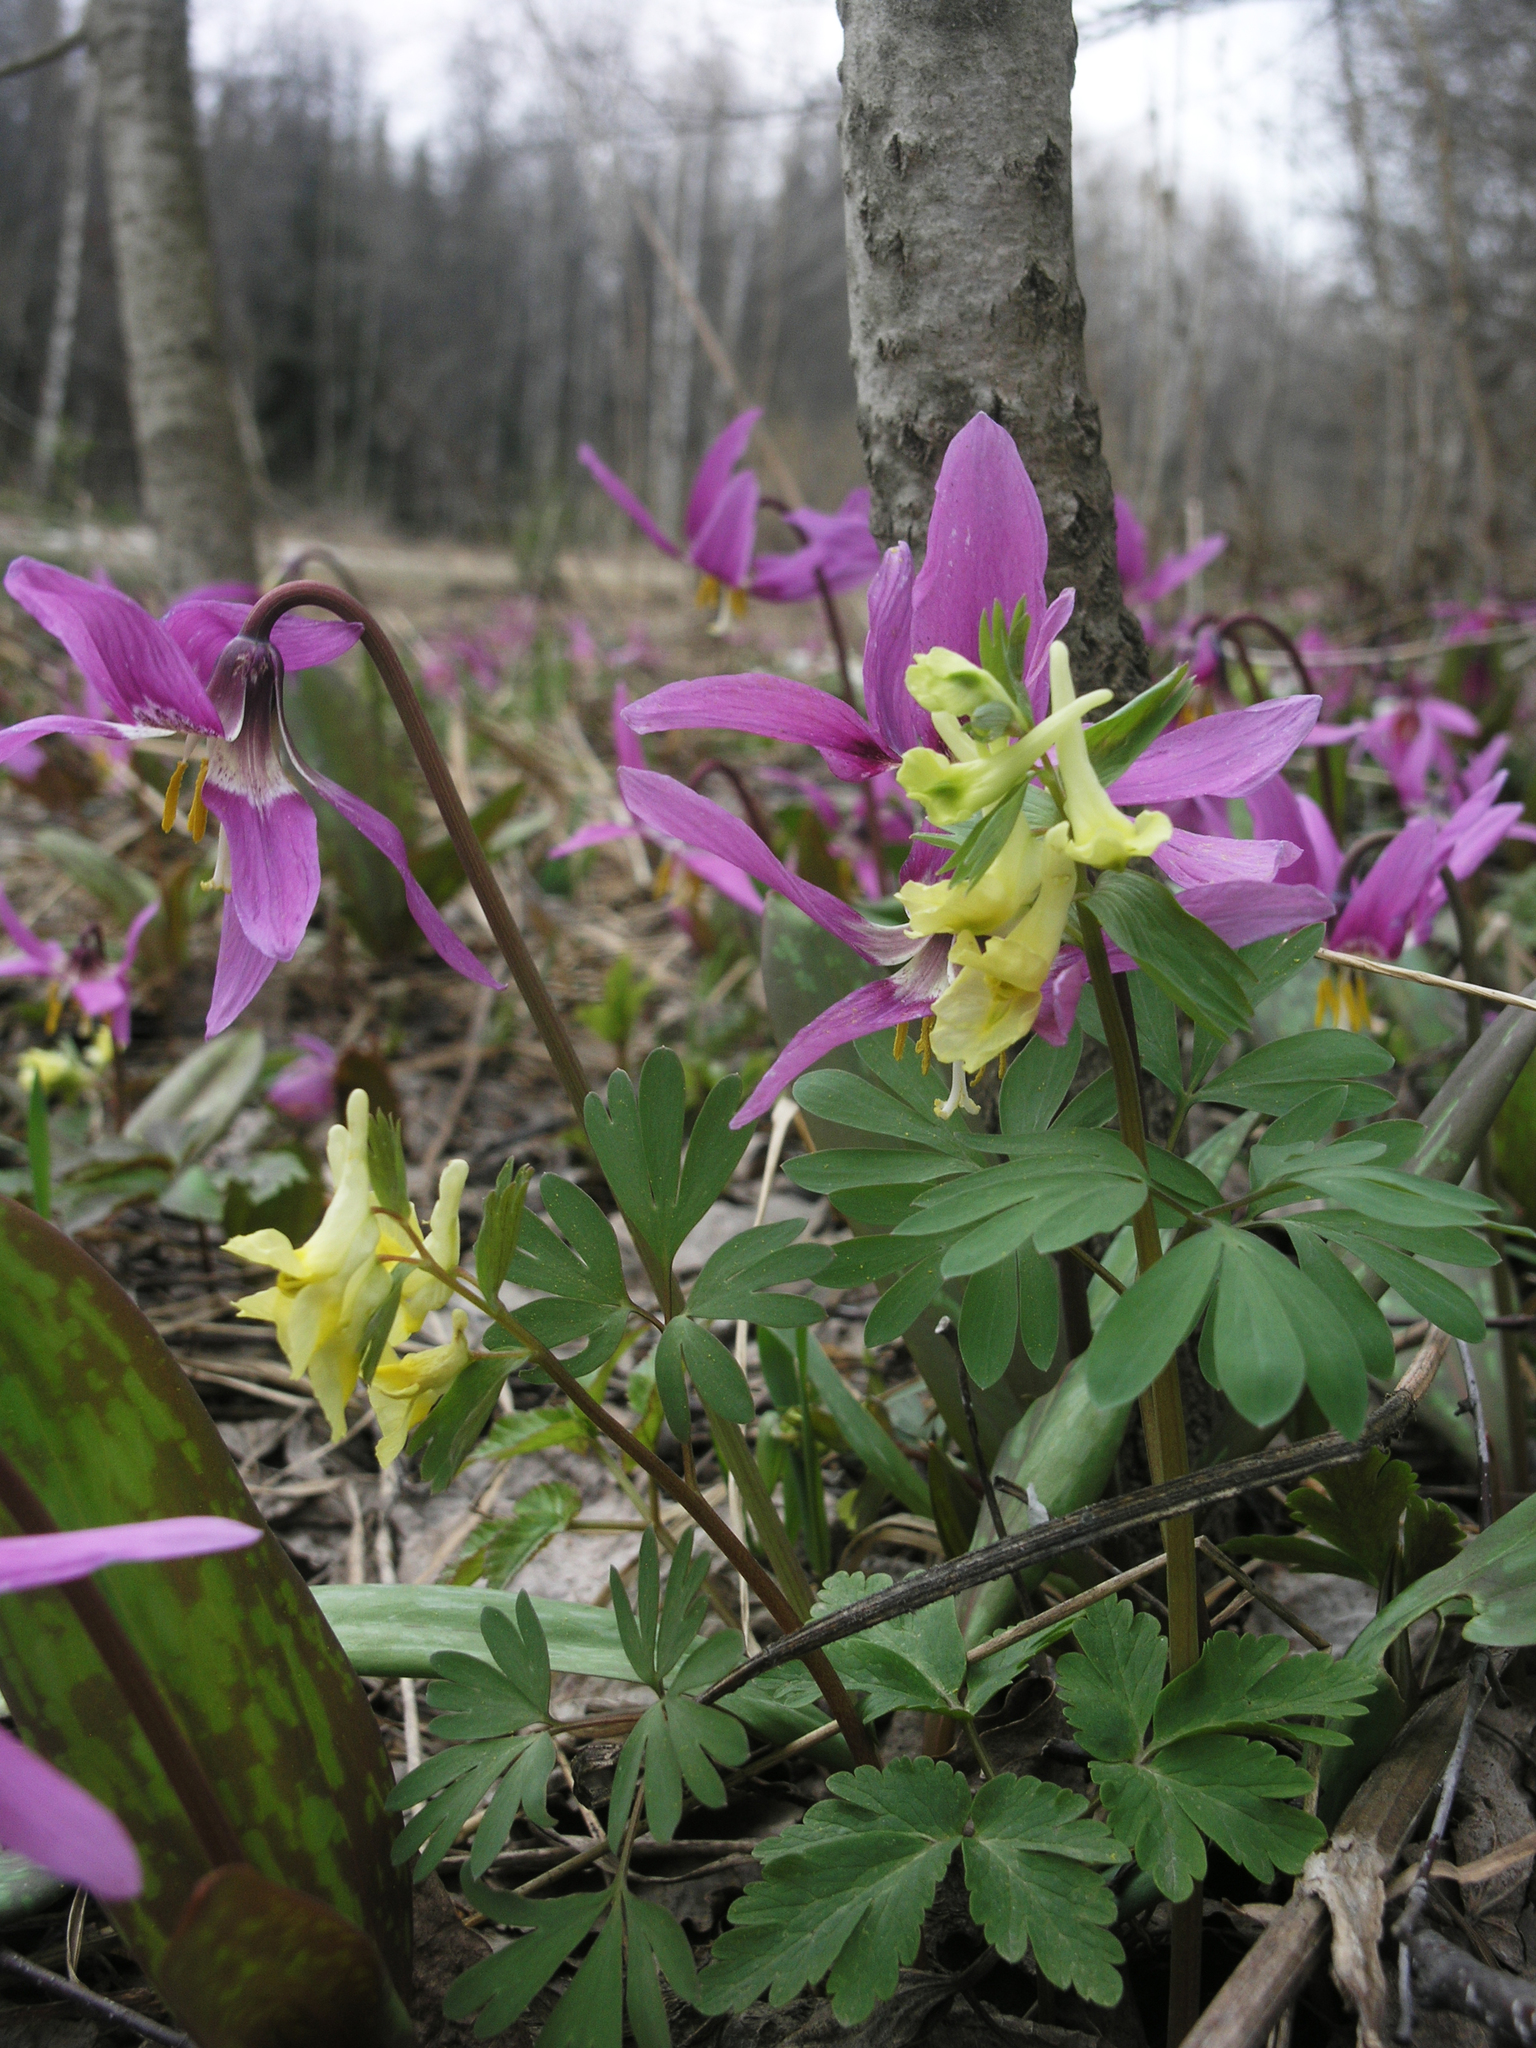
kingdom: Plantae
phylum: Tracheophyta
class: Liliopsida
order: Liliales
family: Liliaceae
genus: Erythronium
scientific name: Erythronium sibiricum
